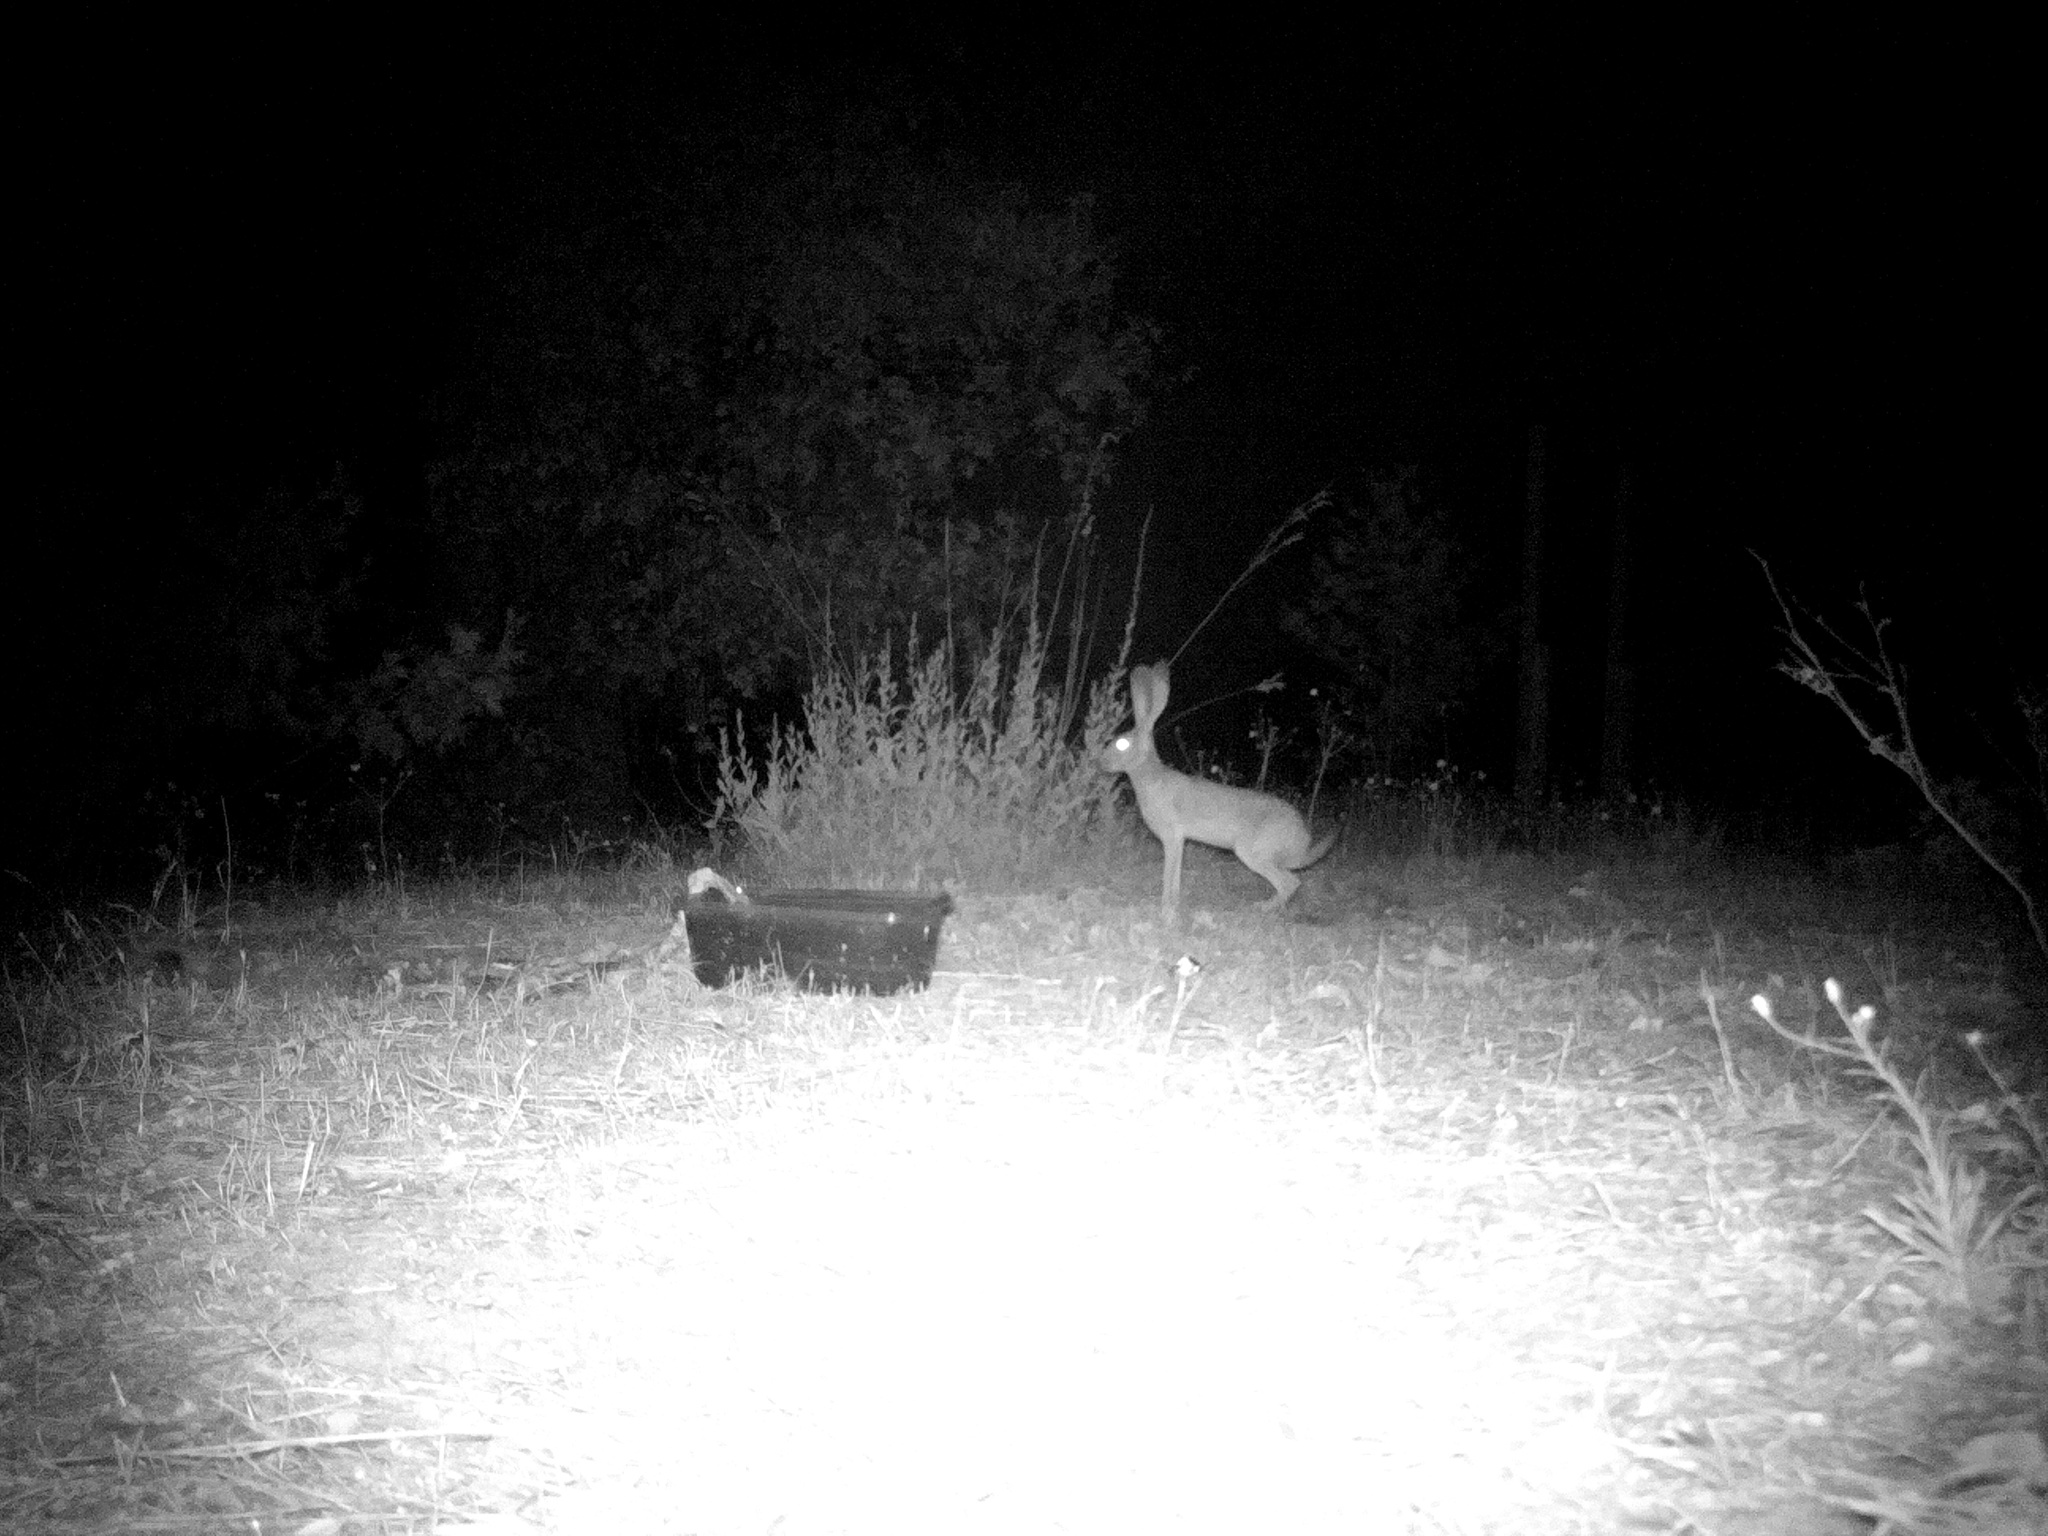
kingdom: Animalia
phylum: Chordata
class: Mammalia
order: Lagomorpha
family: Leporidae
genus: Lepus
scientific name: Lepus californicus
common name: Black-tailed jackrabbit
